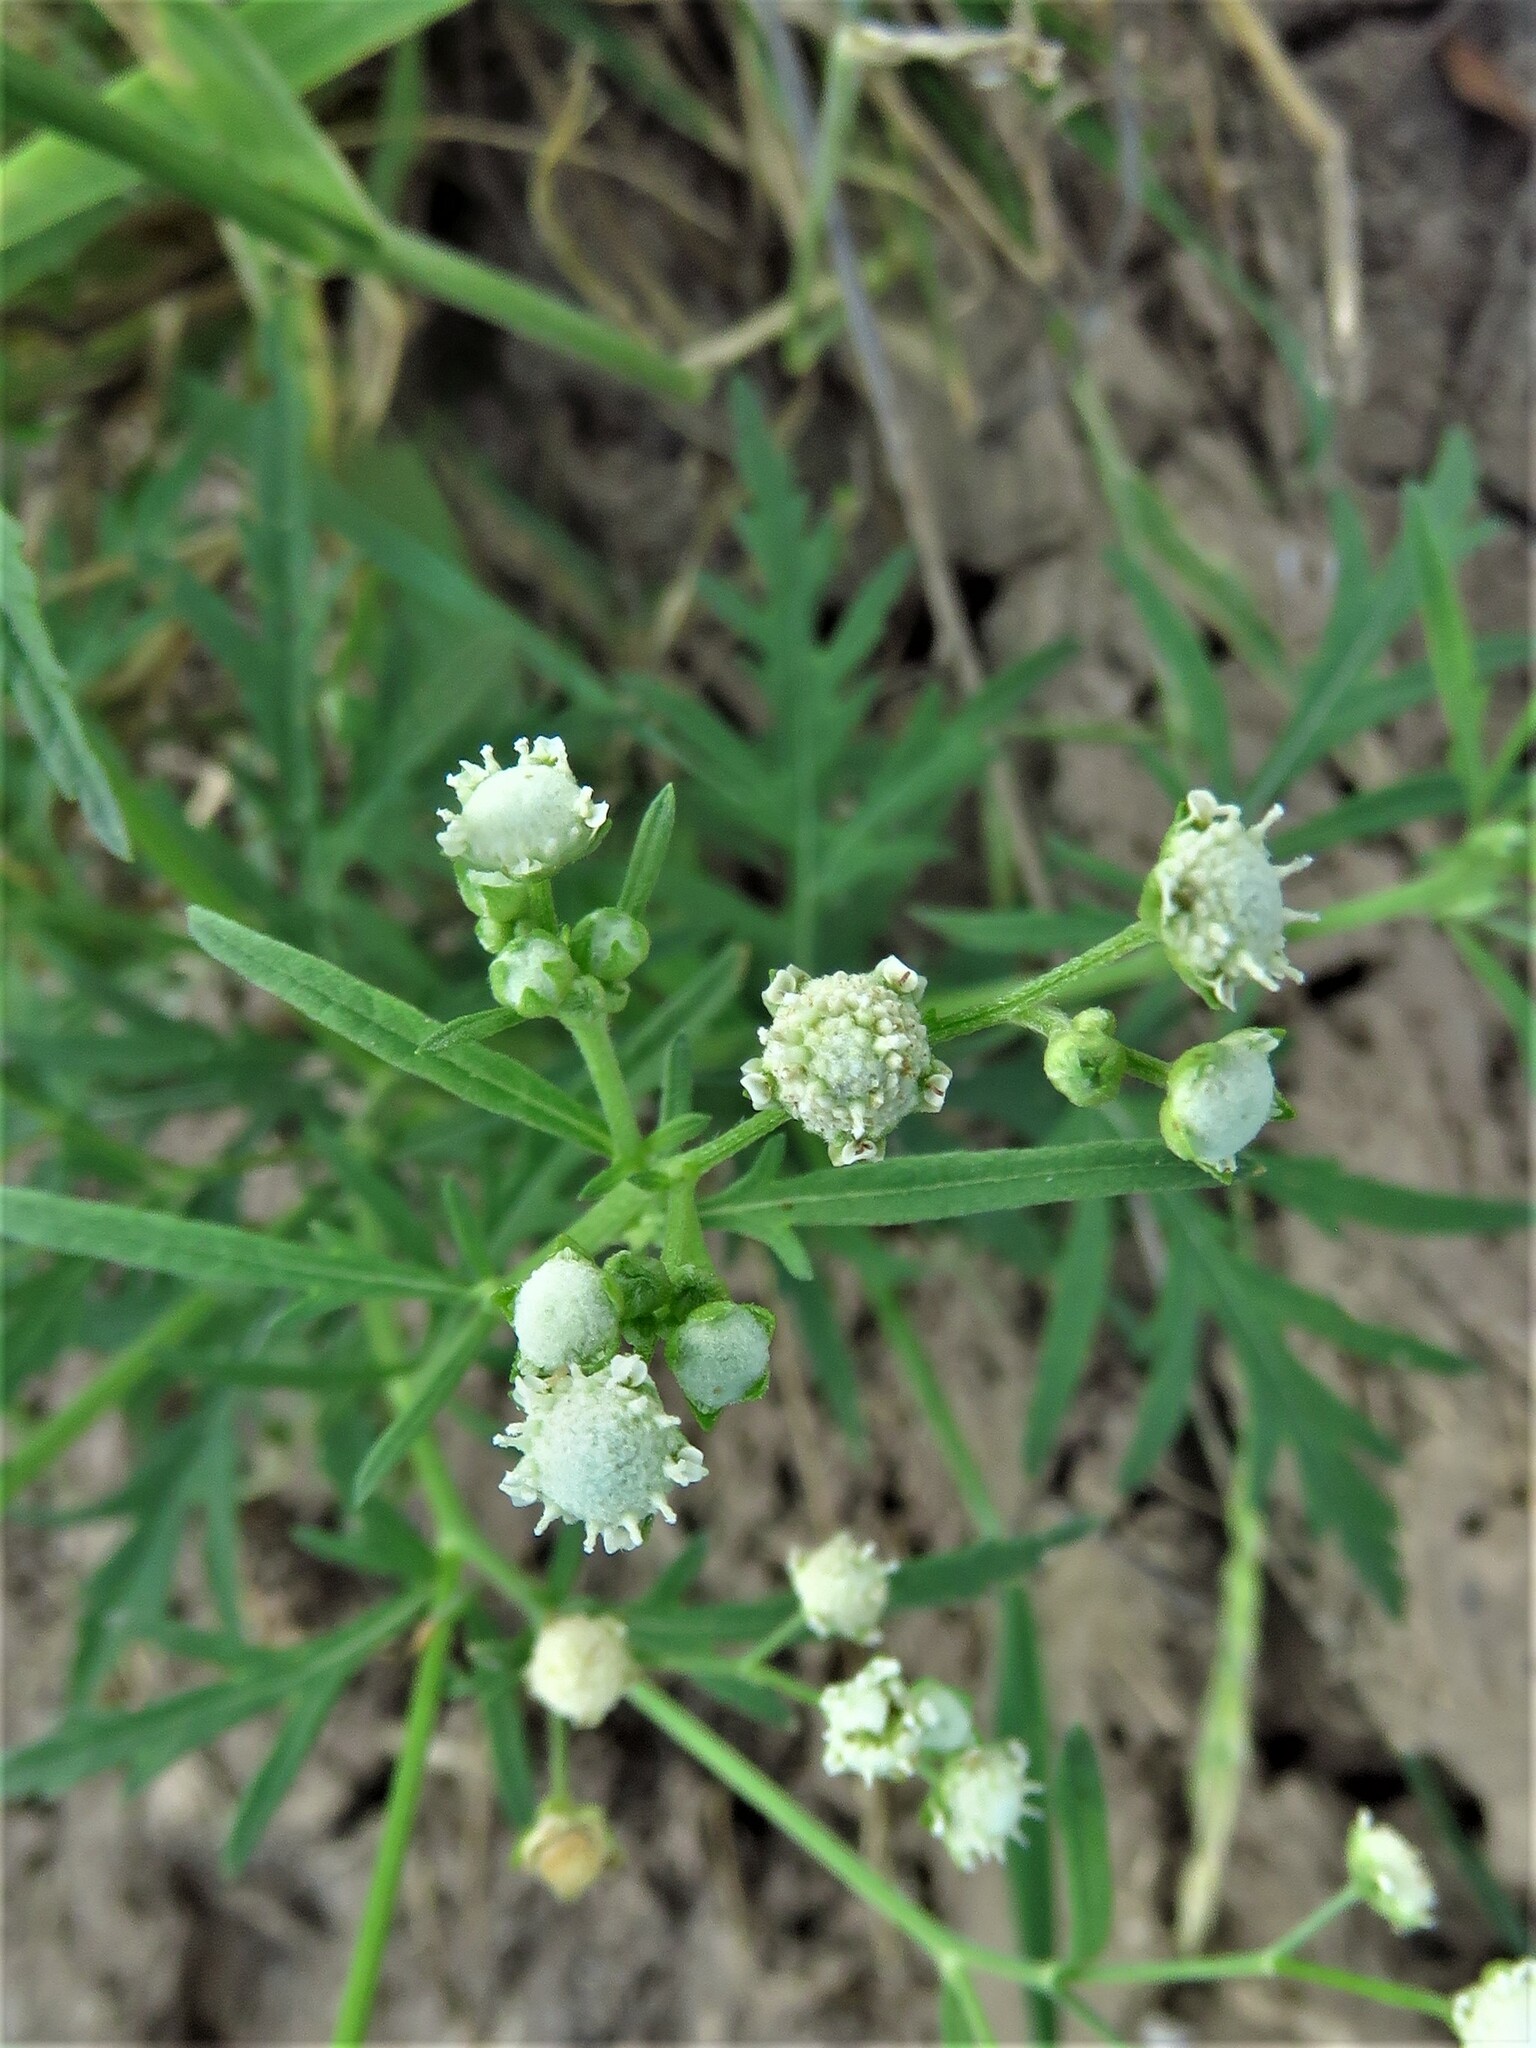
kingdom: Plantae
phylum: Tracheophyta
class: Magnoliopsida
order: Asterales
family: Asteraceae
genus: Parthenium
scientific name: Parthenium hysterophorus
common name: Santa maria feverfew
